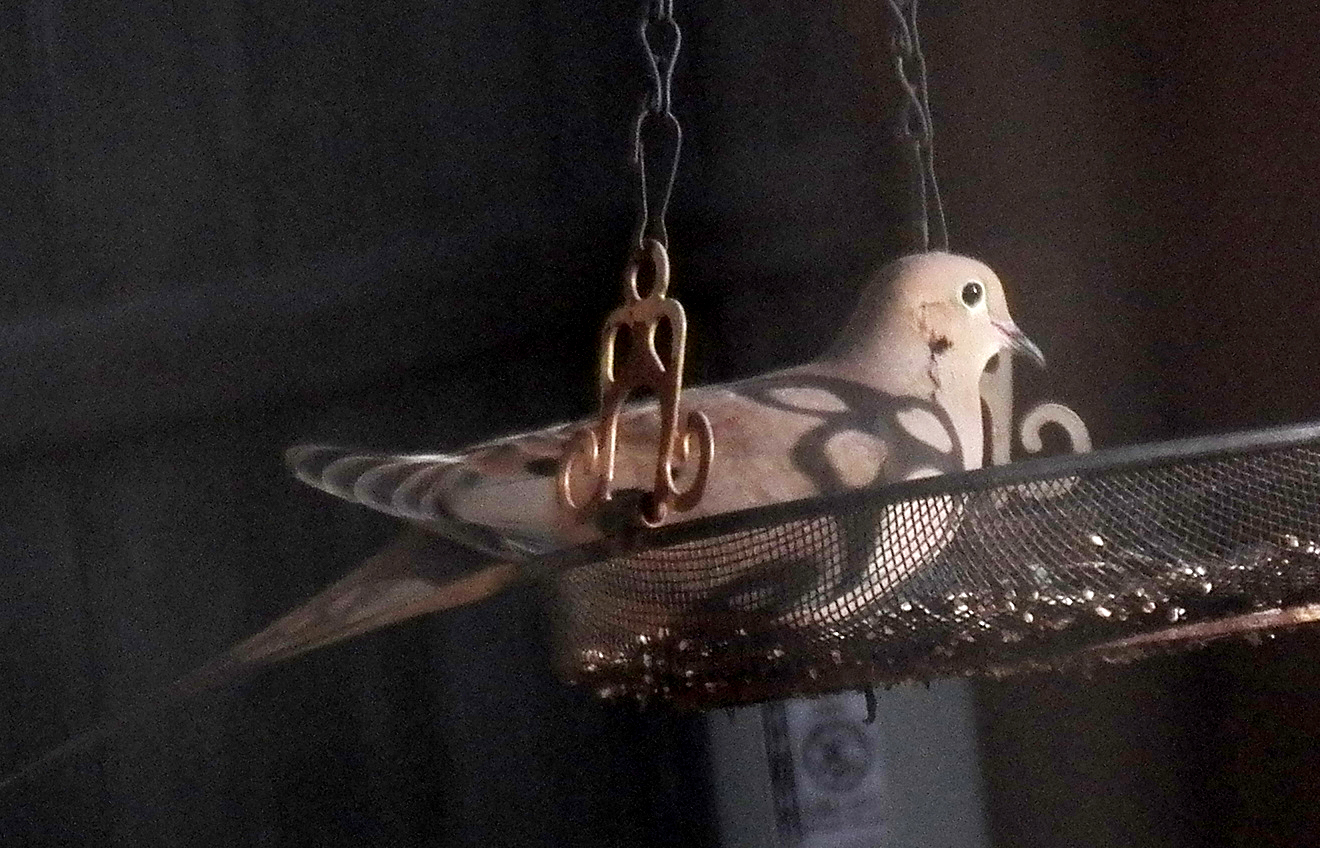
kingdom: Animalia
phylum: Chordata
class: Aves
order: Columbiformes
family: Columbidae
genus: Zenaida
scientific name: Zenaida macroura
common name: Mourning dove
